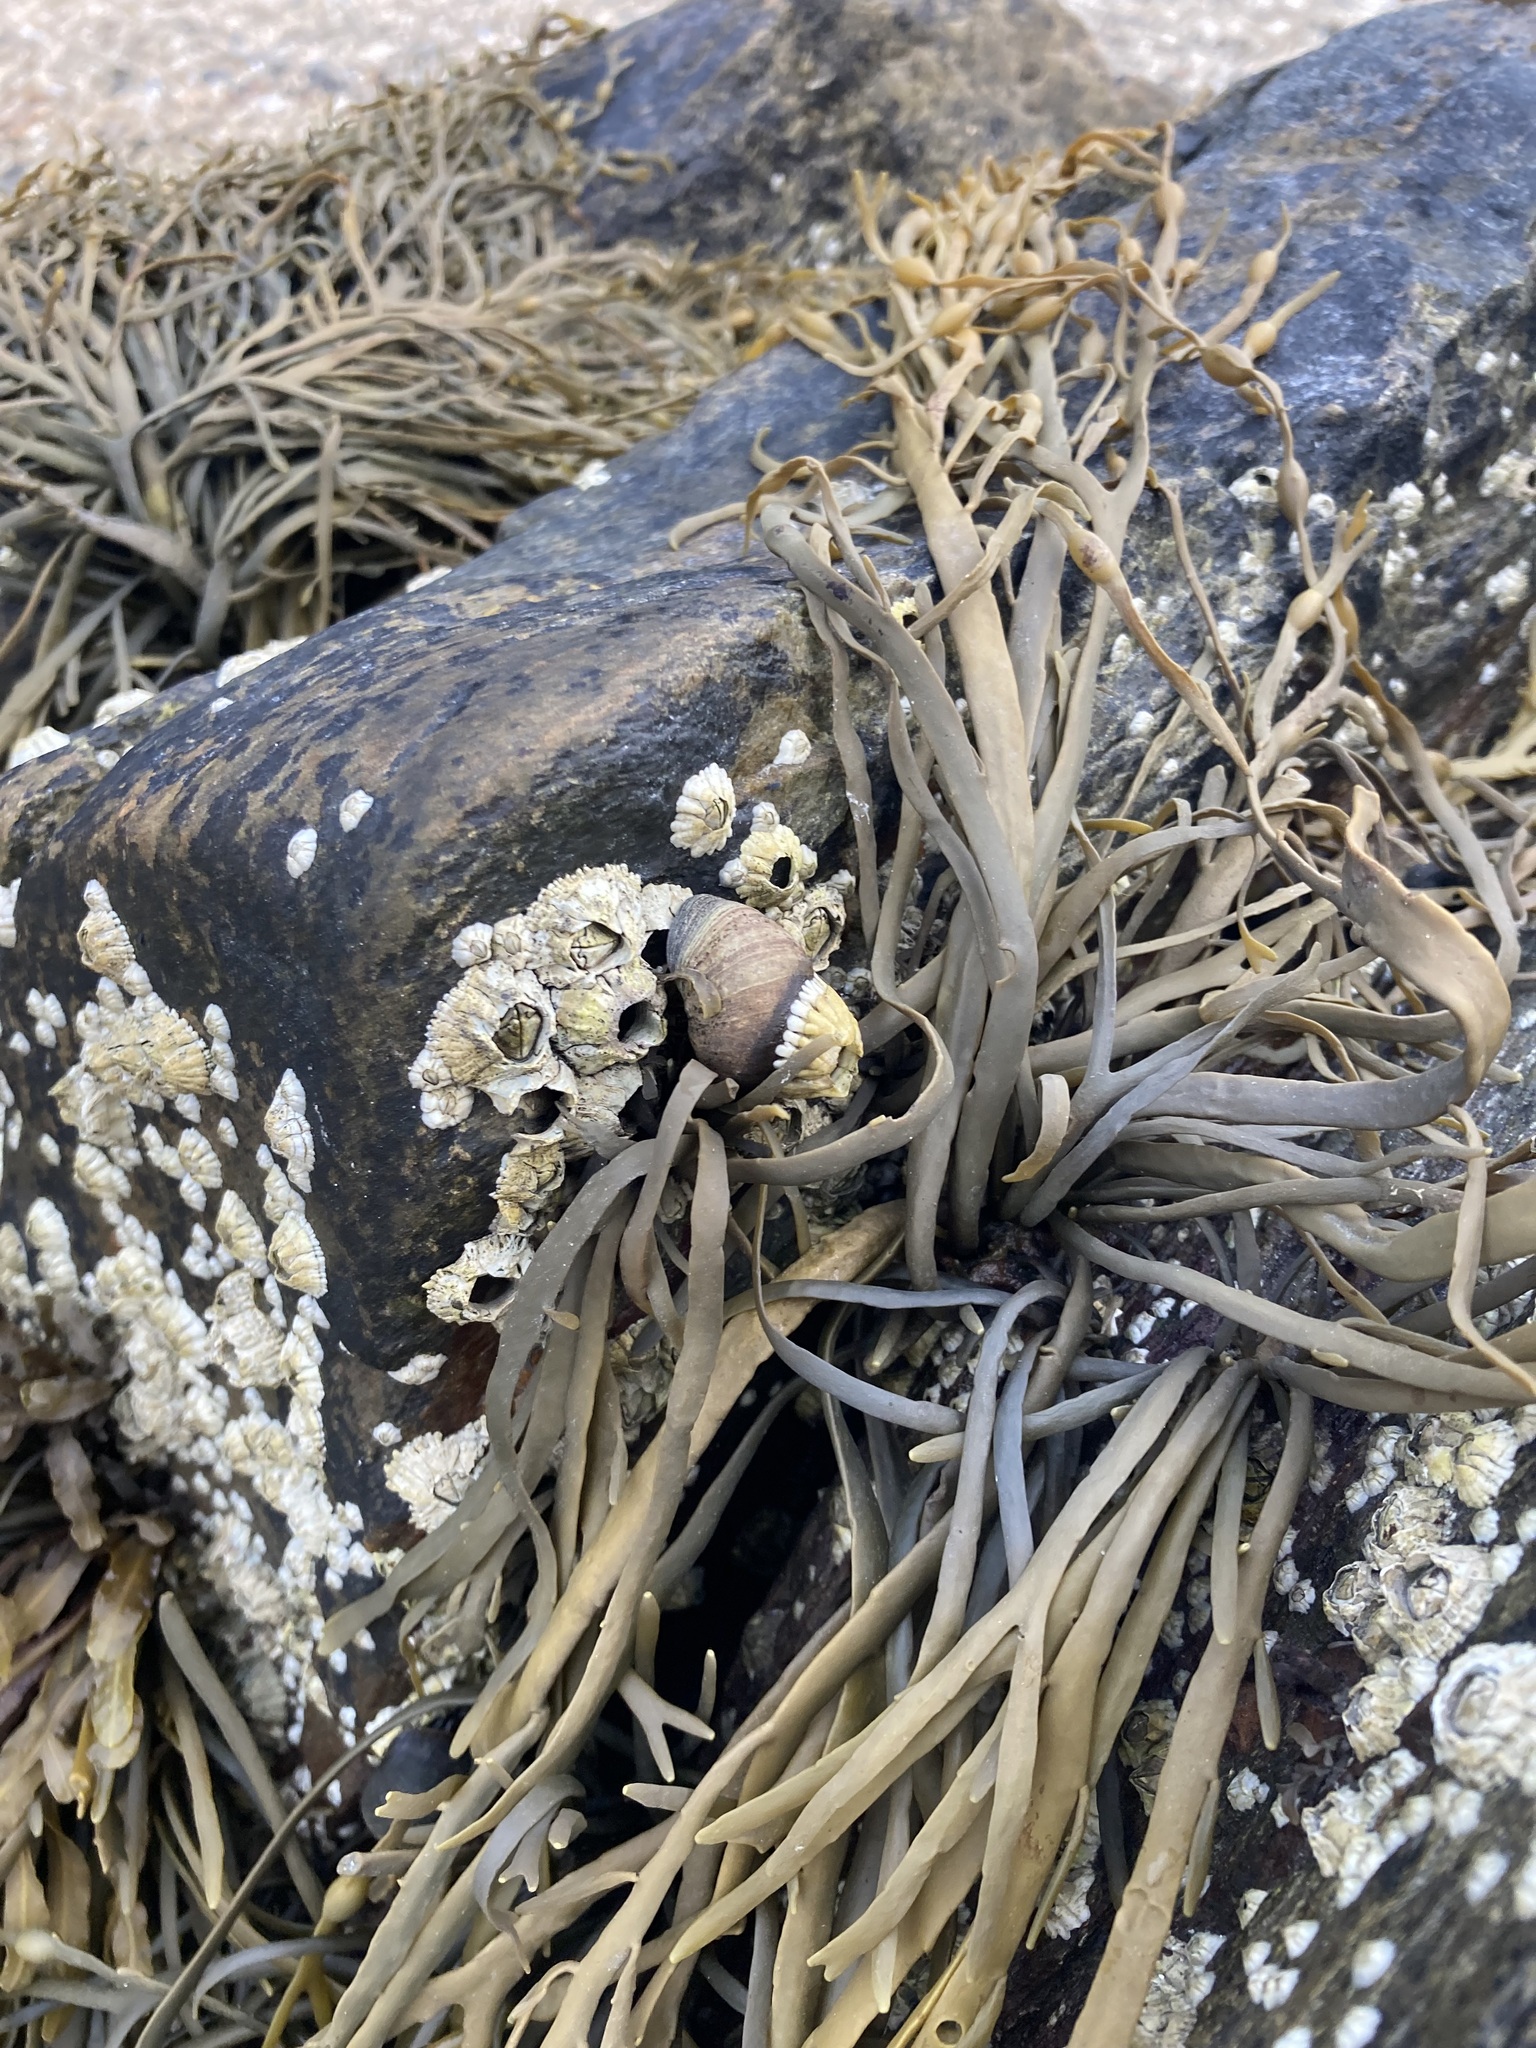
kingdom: Chromista
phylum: Ochrophyta
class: Phaeophyceae
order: Fucales
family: Fucaceae
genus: Ascophyllum
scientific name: Ascophyllum nodosum
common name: Knotted wrack
